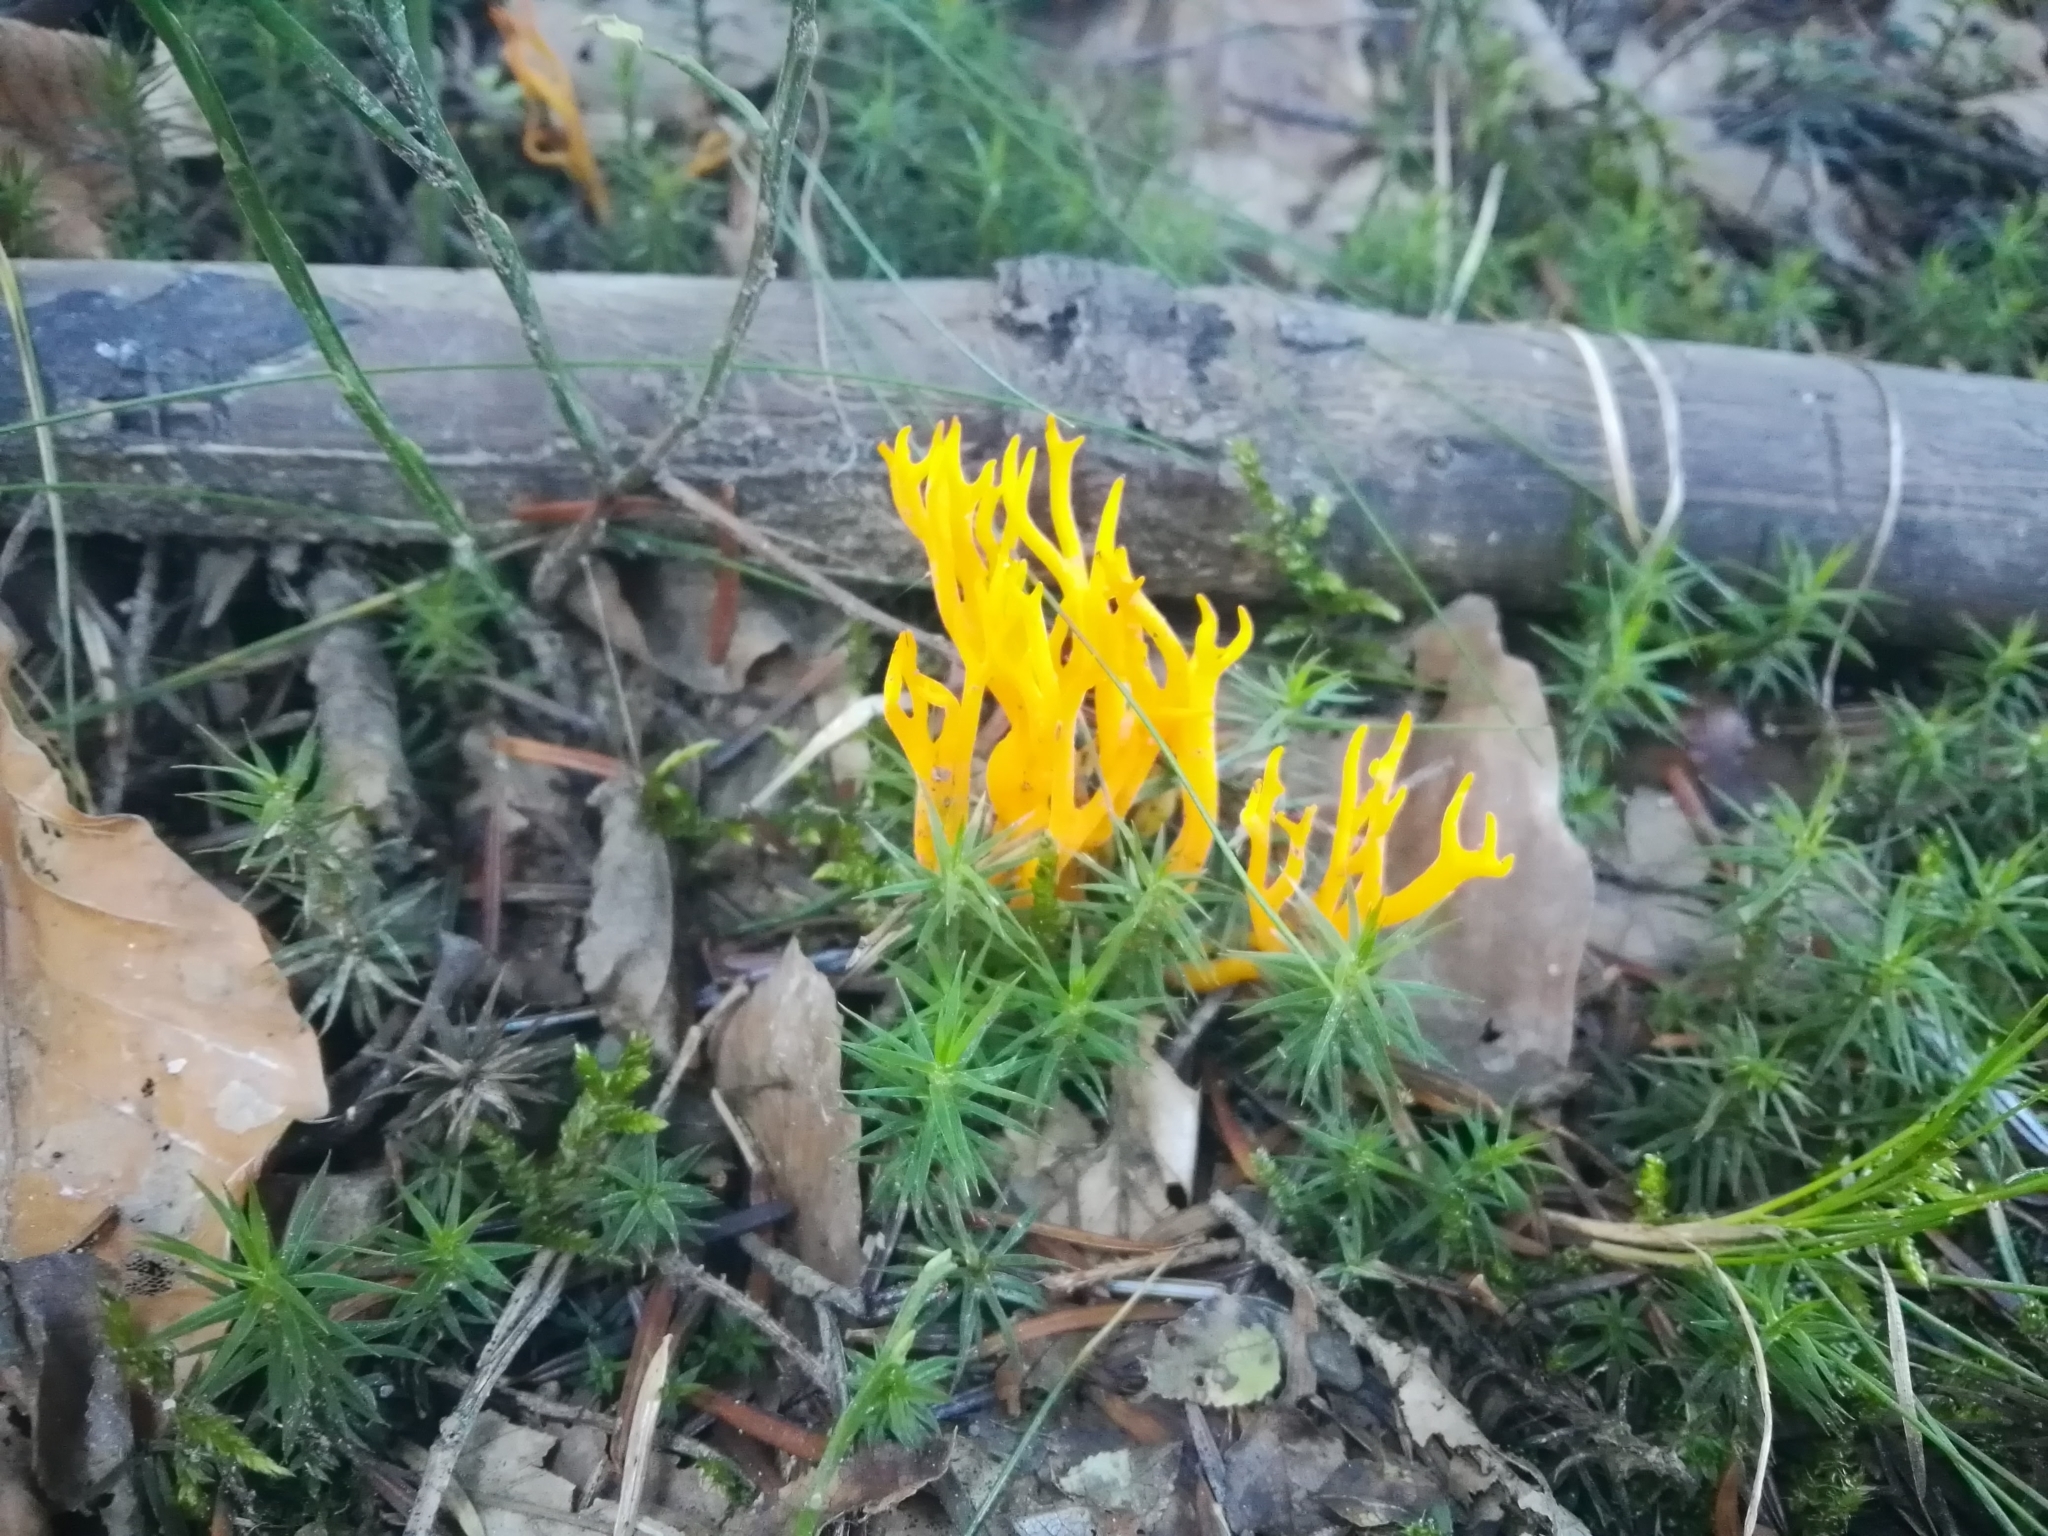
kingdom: Fungi
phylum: Basidiomycota
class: Dacrymycetes
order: Dacrymycetales
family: Dacrymycetaceae
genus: Calocera
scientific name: Calocera viscosa
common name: Yellow stagshorn
